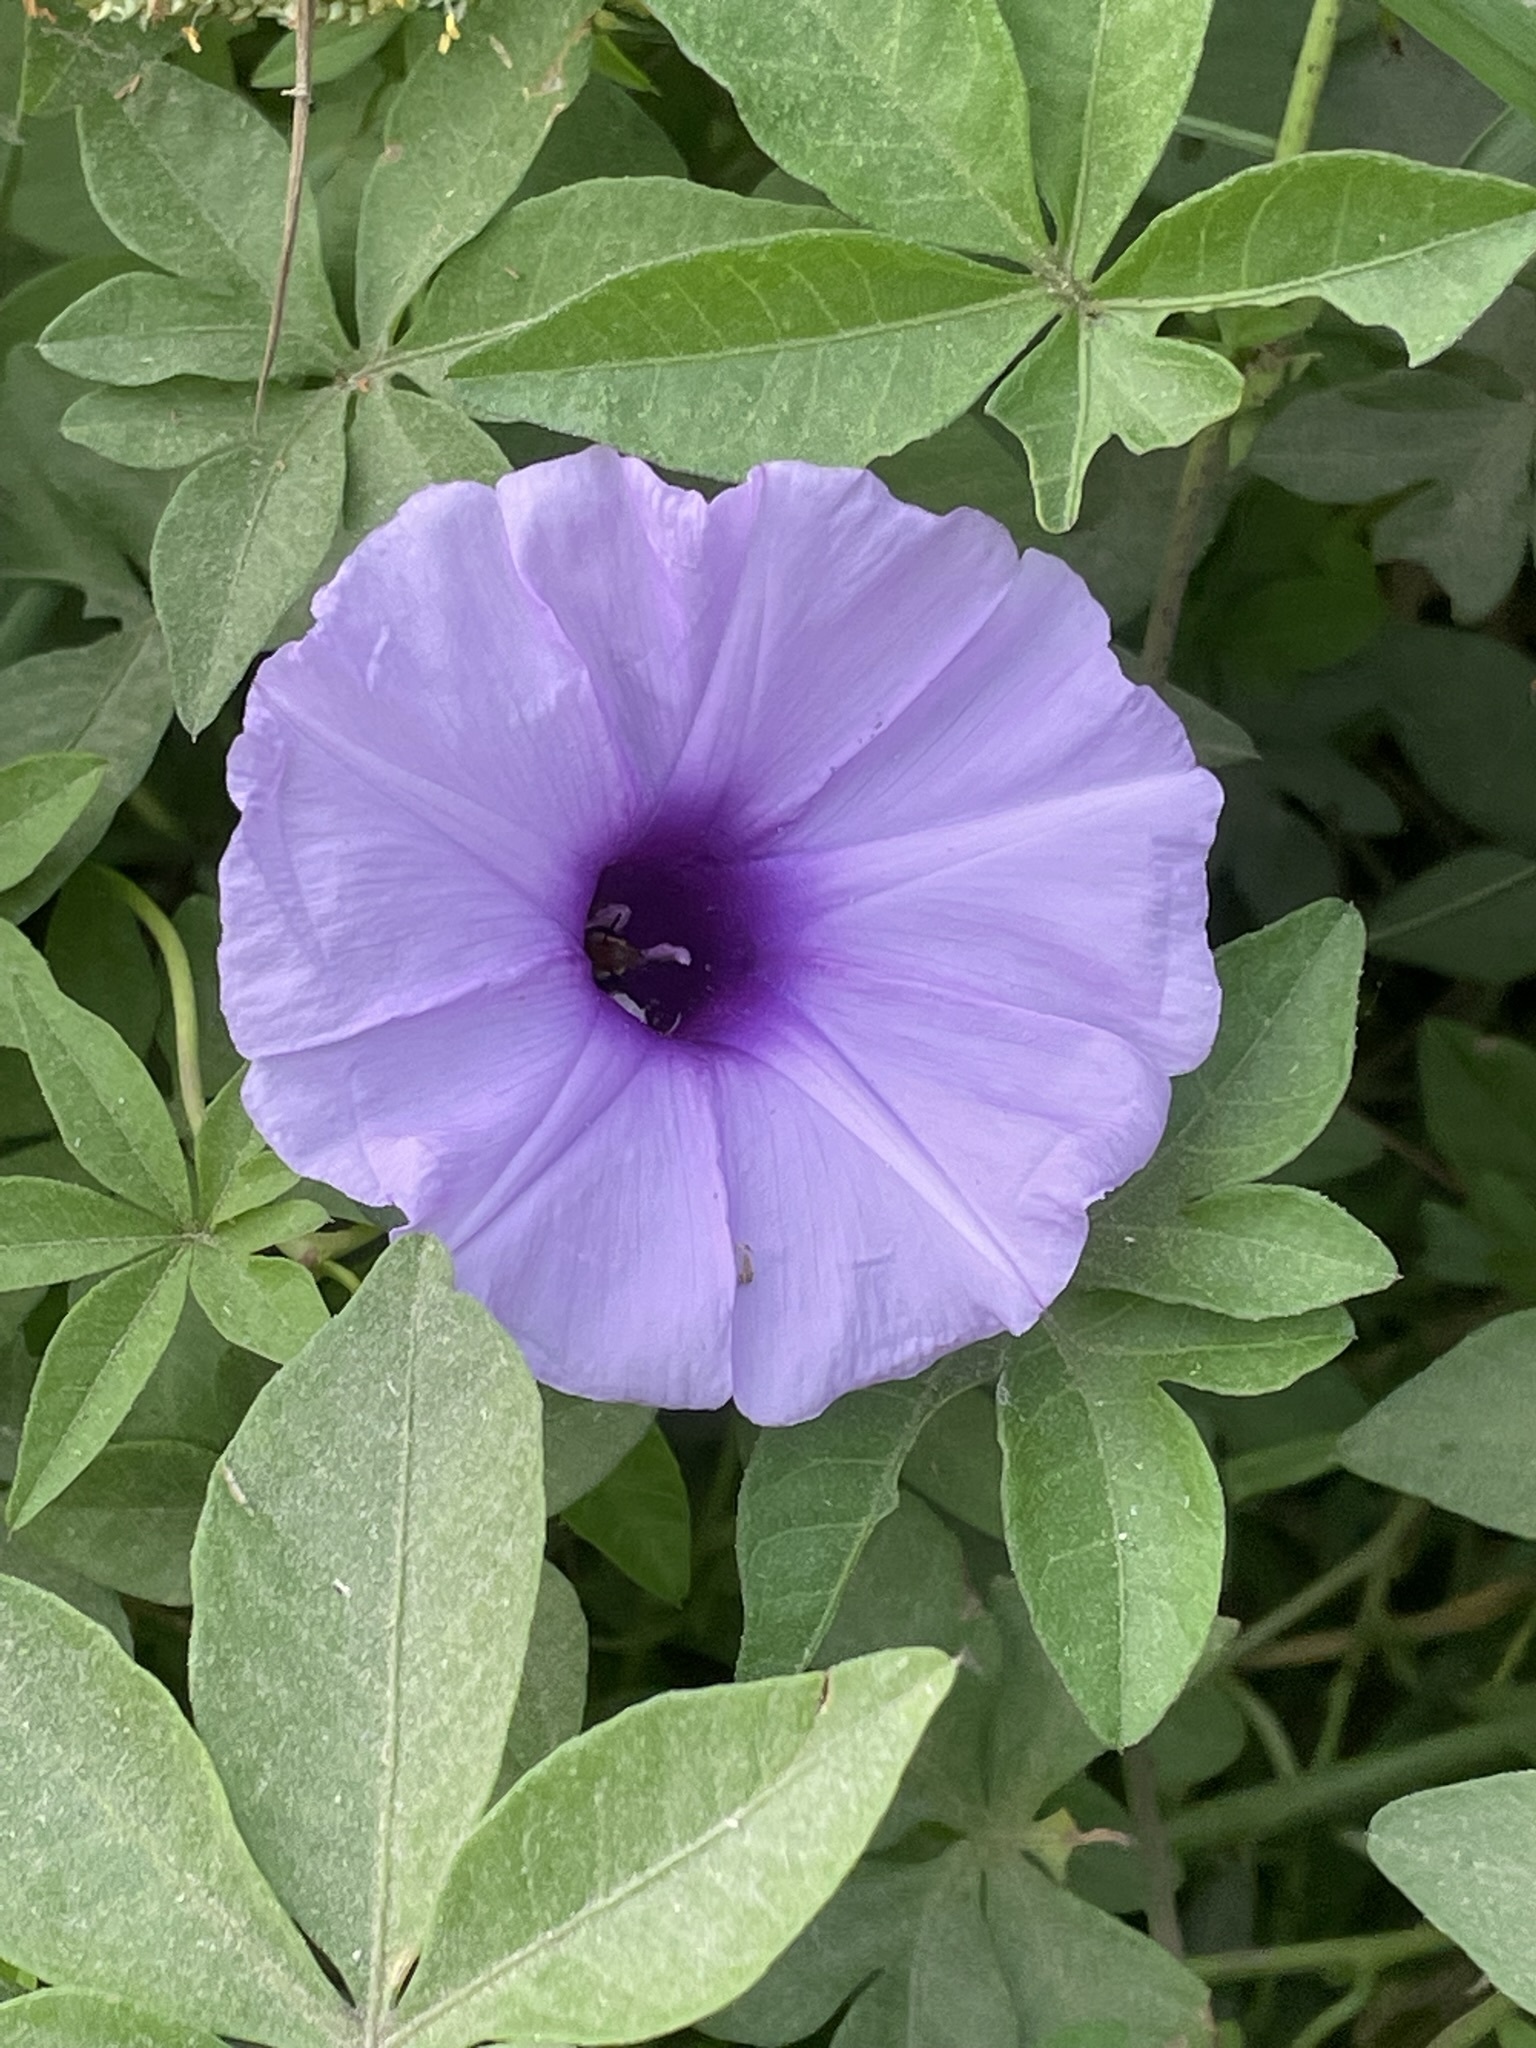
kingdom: Plantae
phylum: Tracheophyta
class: Magnoliopsida
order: Solanales
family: Convolvulaceae
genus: Ipomoea
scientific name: Ipomoea cairica
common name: Mile a minute vine
